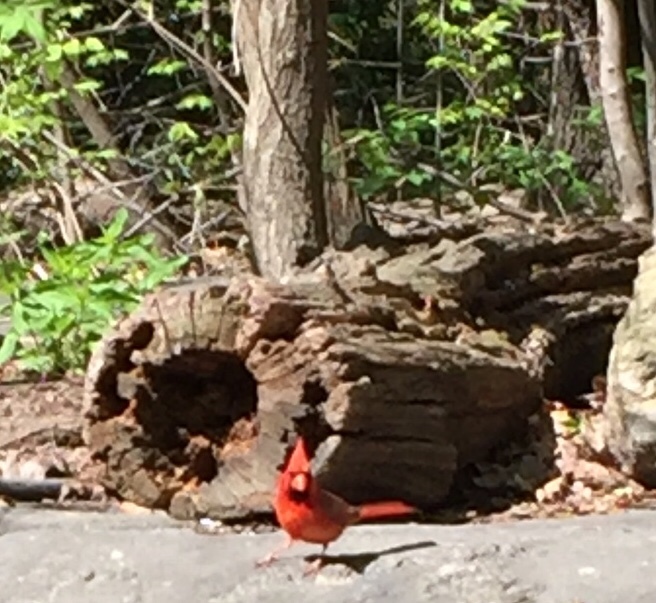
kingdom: Animalia
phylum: Chordata
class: Aves
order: Passeriformes
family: Cardinalidae
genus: Cardinalis
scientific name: Cardinalis cardinalis
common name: Northern cardinal
